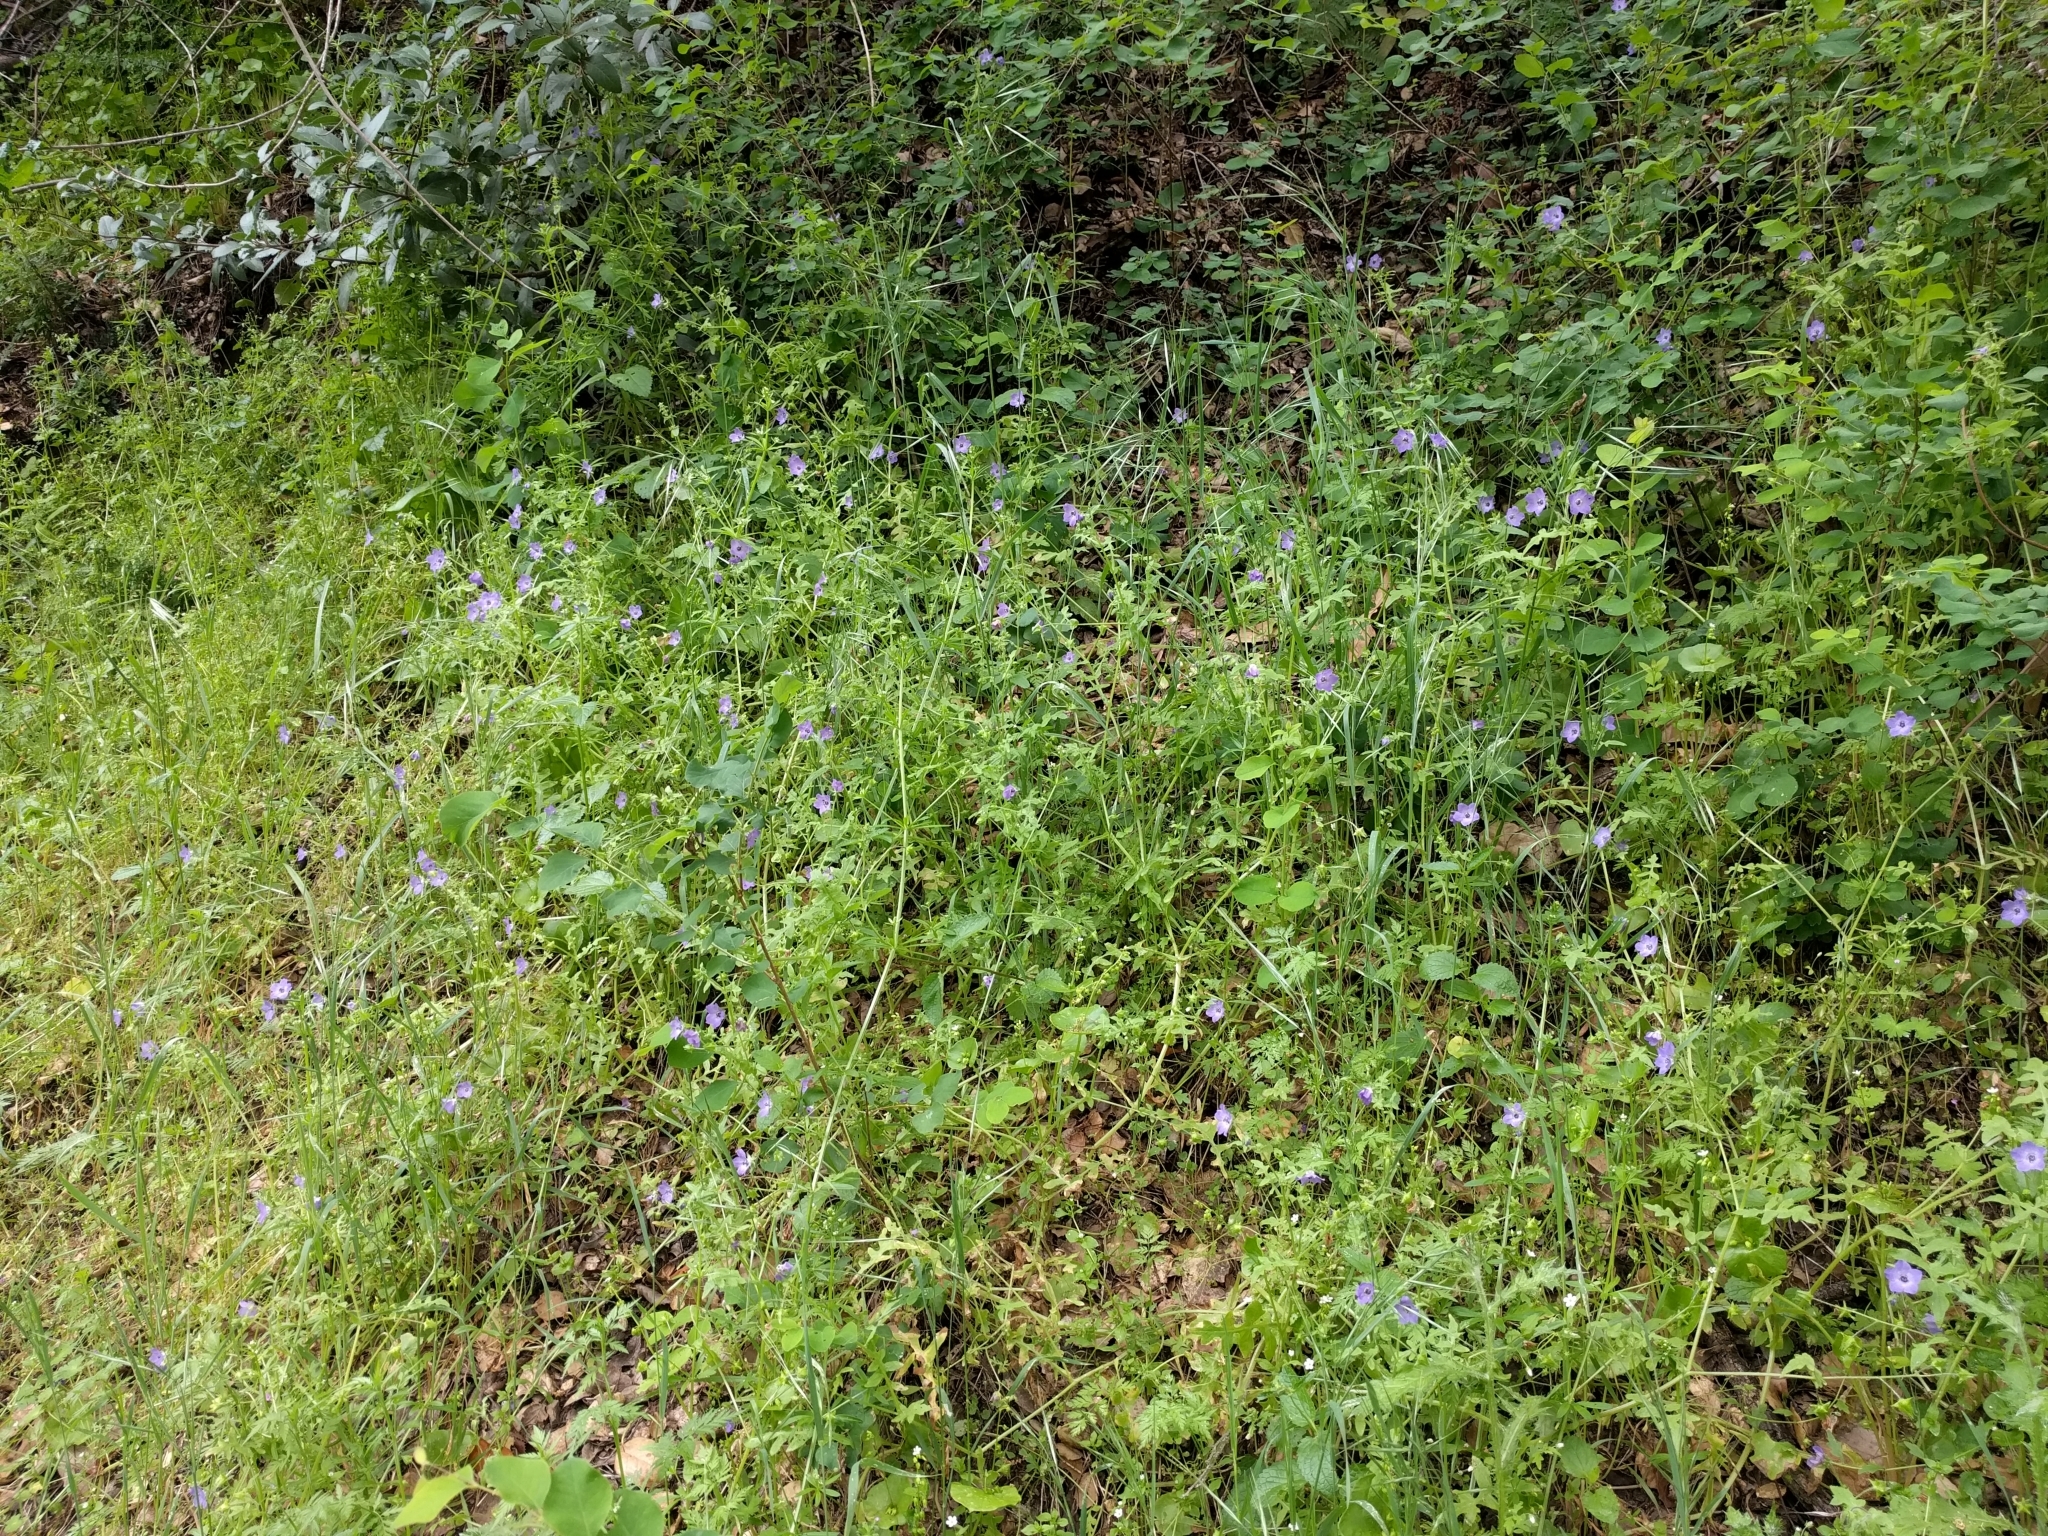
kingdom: Plantae
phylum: Tracheophyta
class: Magnoliopsida
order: Boraginales
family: Hydrophyllaceae
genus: Pholistoma
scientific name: Pholistoma auritum
